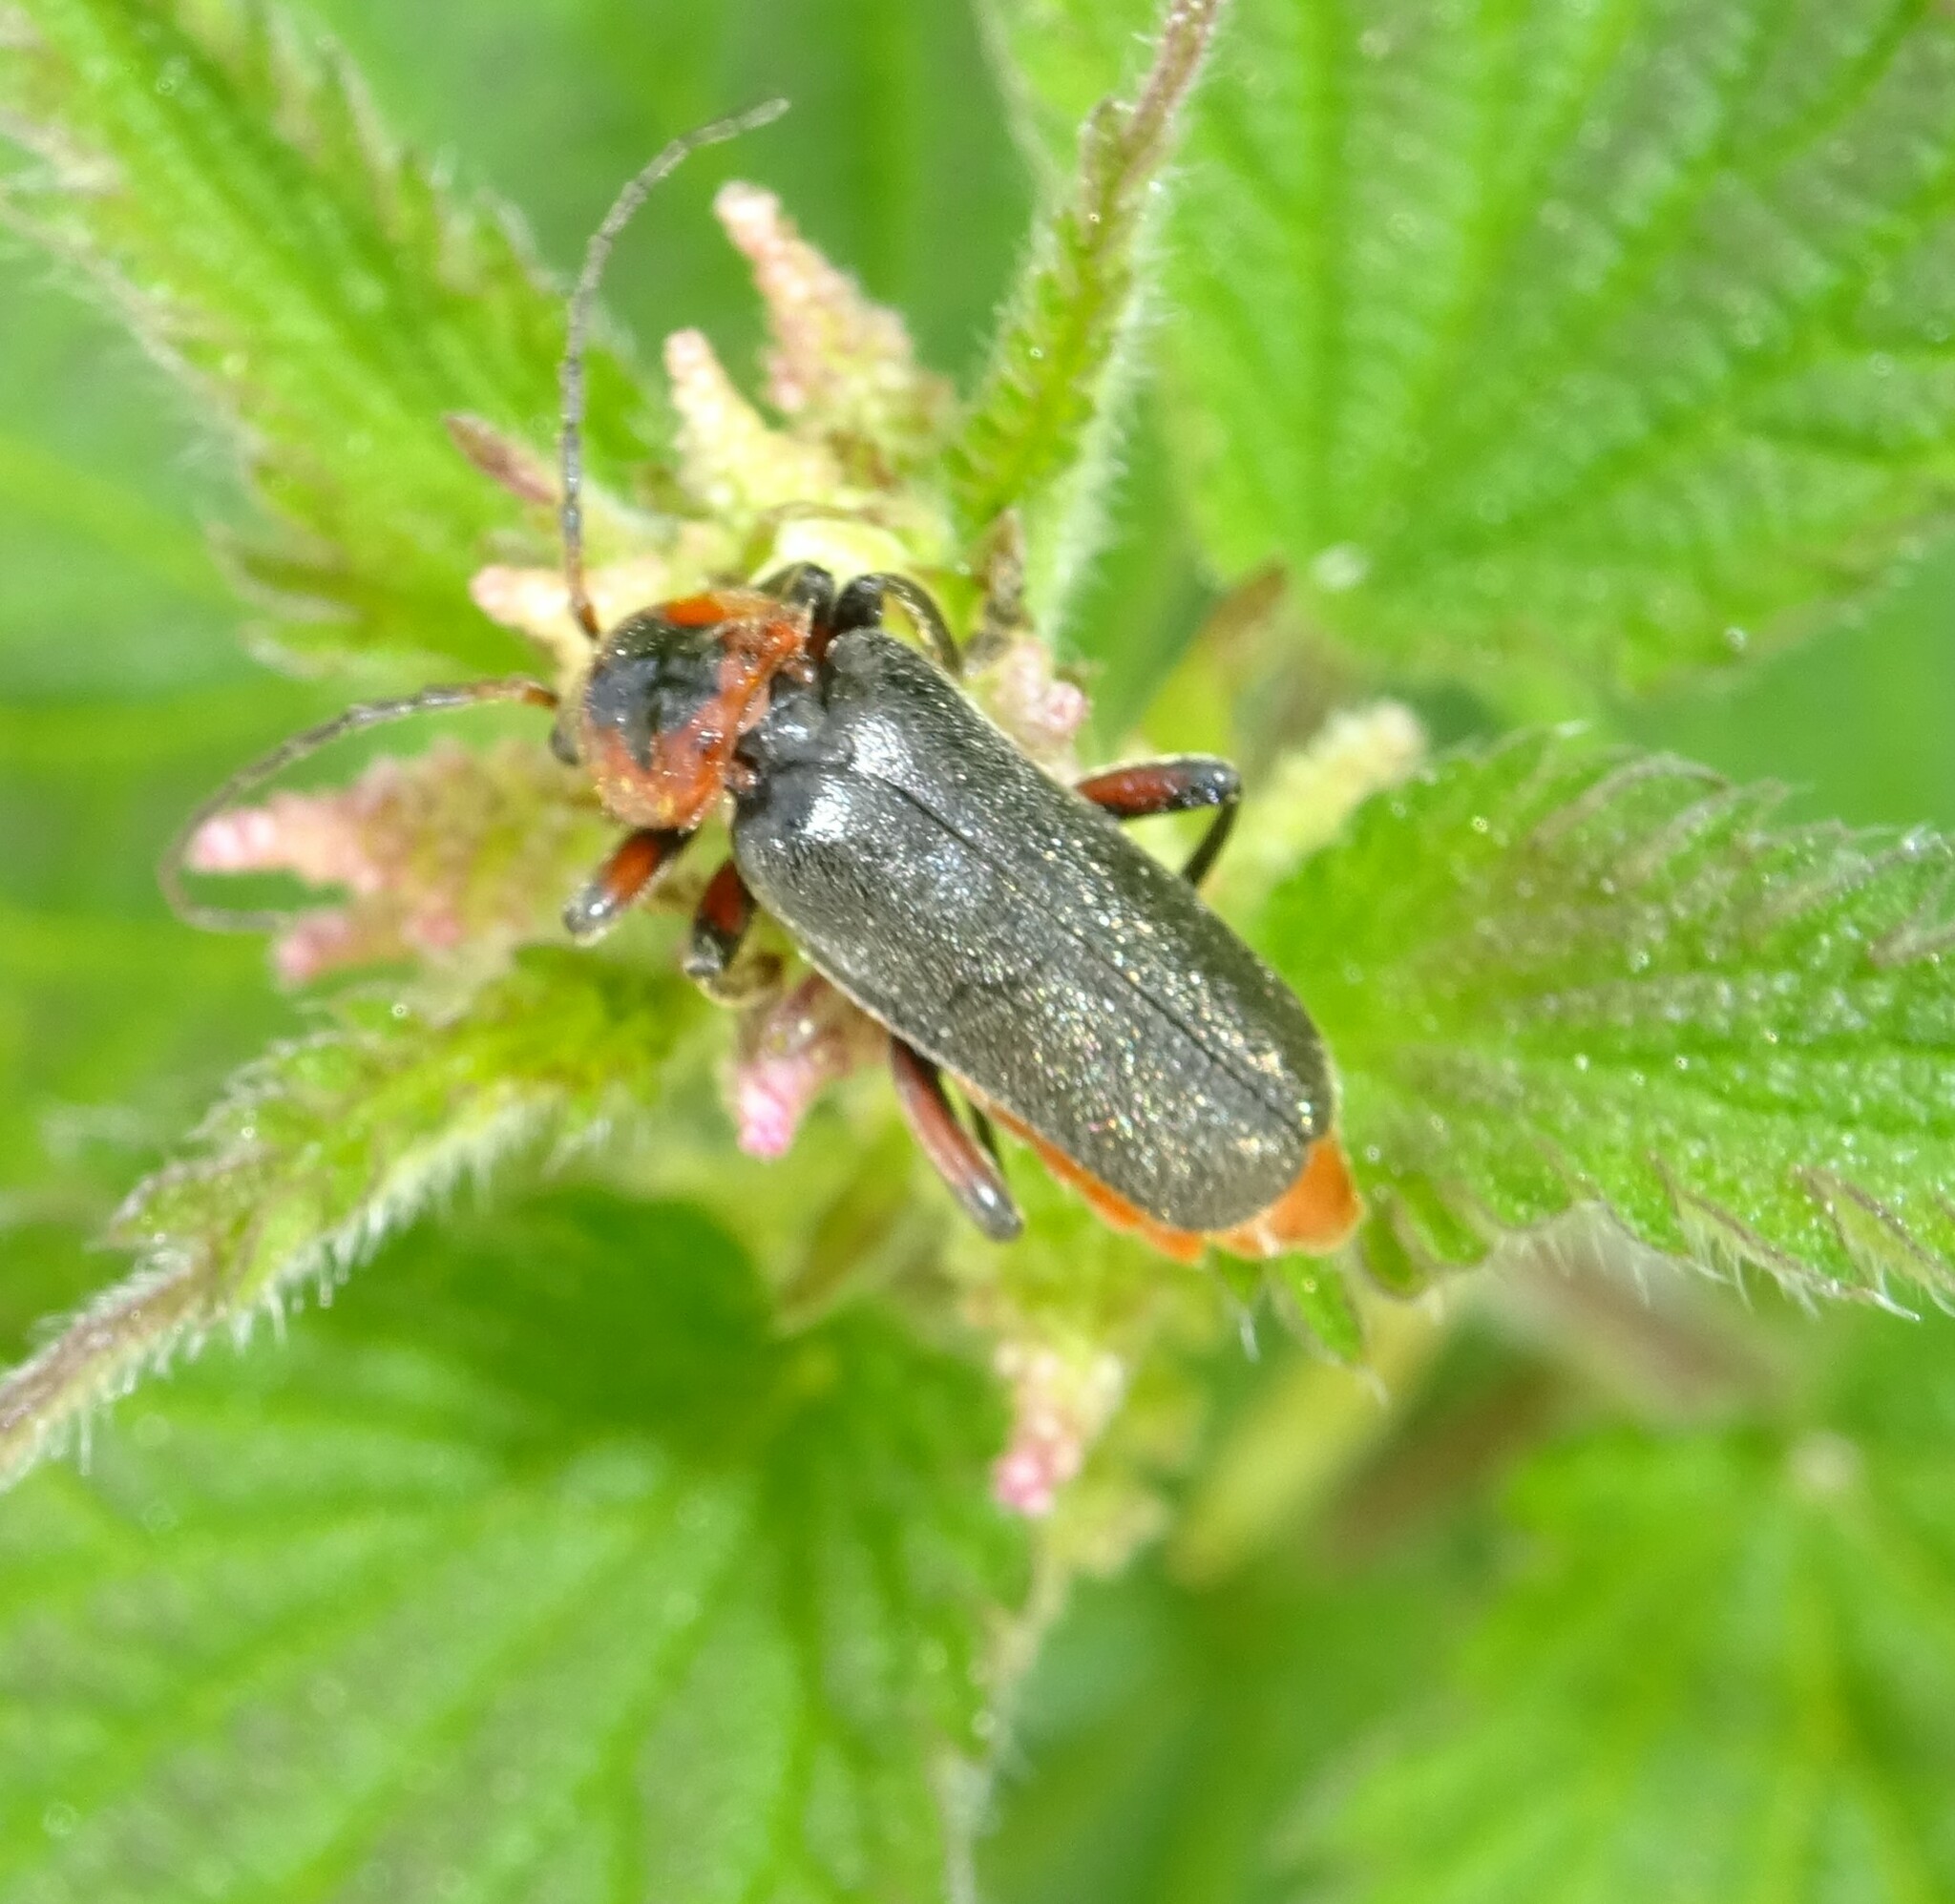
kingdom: Animalia
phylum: Arthropoda
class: Insecta
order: Coleoptera
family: Cantharidae
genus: Cantharis
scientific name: Cantharis rustica
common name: Soldier beetle
